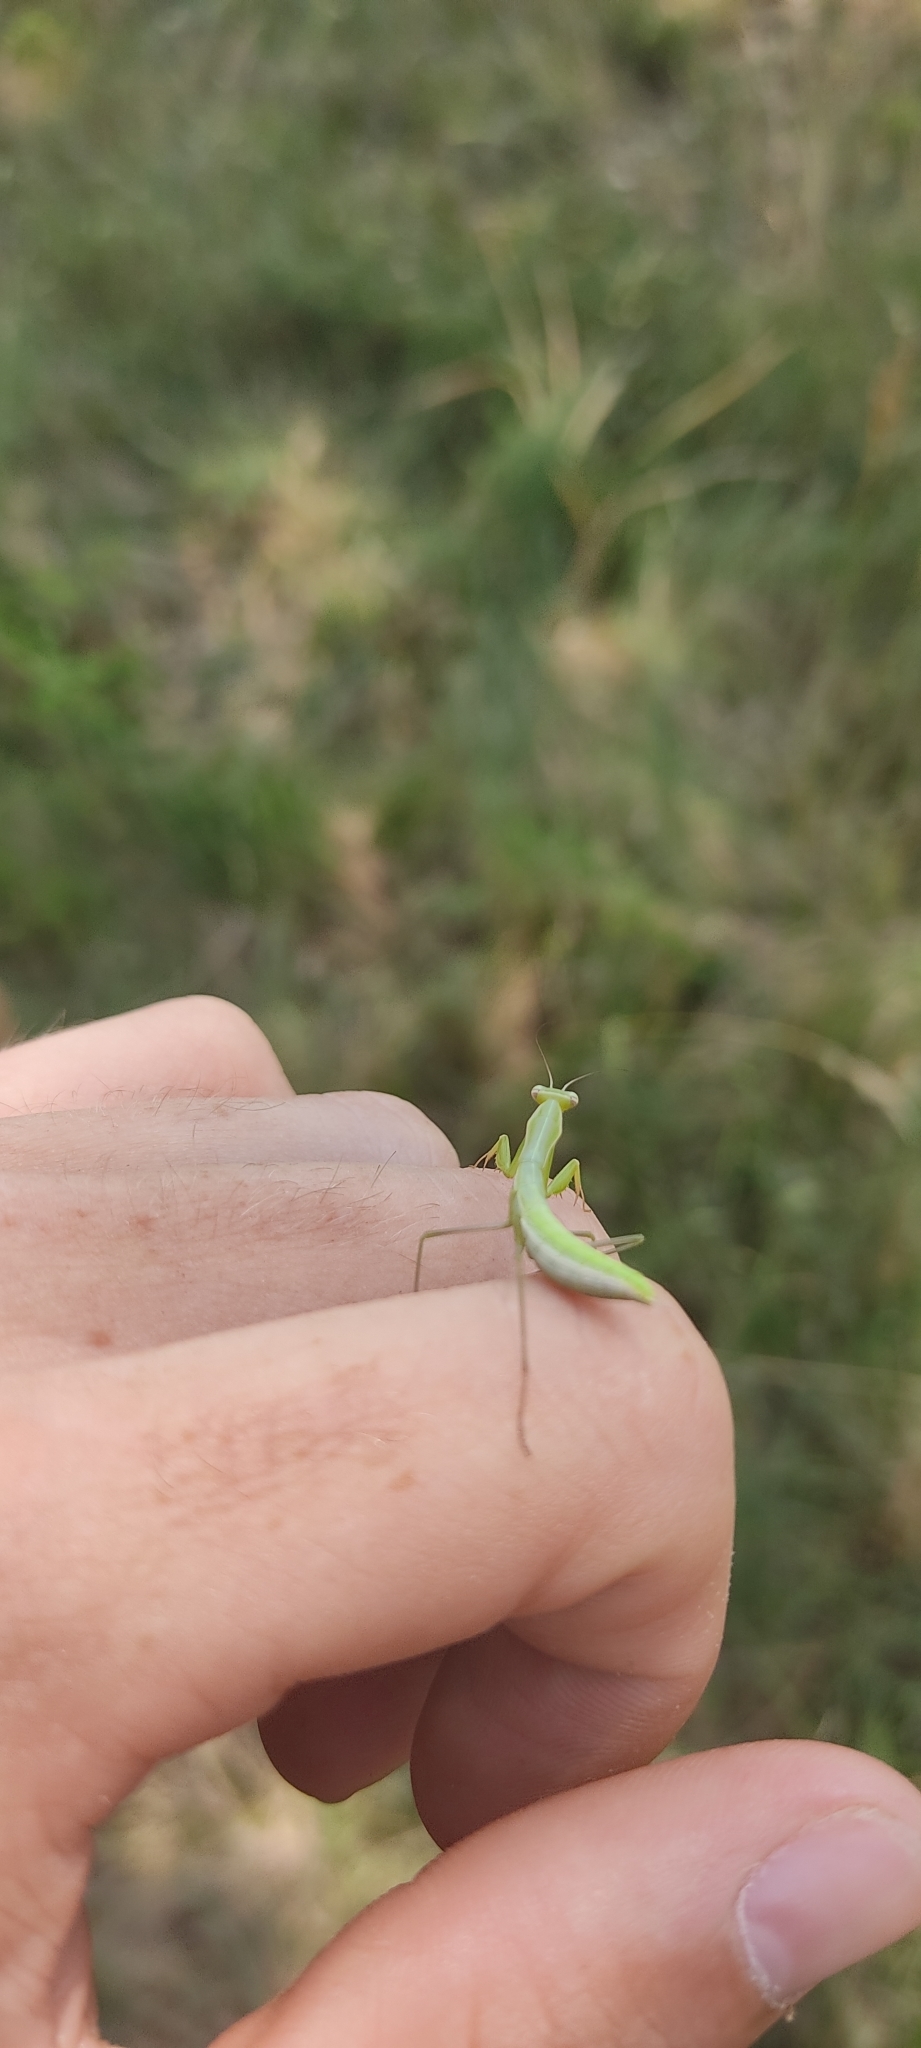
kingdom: Animalia
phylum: Arthropoda
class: Insecta
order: Mantodea
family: Mantidae
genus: Mantis
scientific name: Mantis religiosa
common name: Praying mantis
